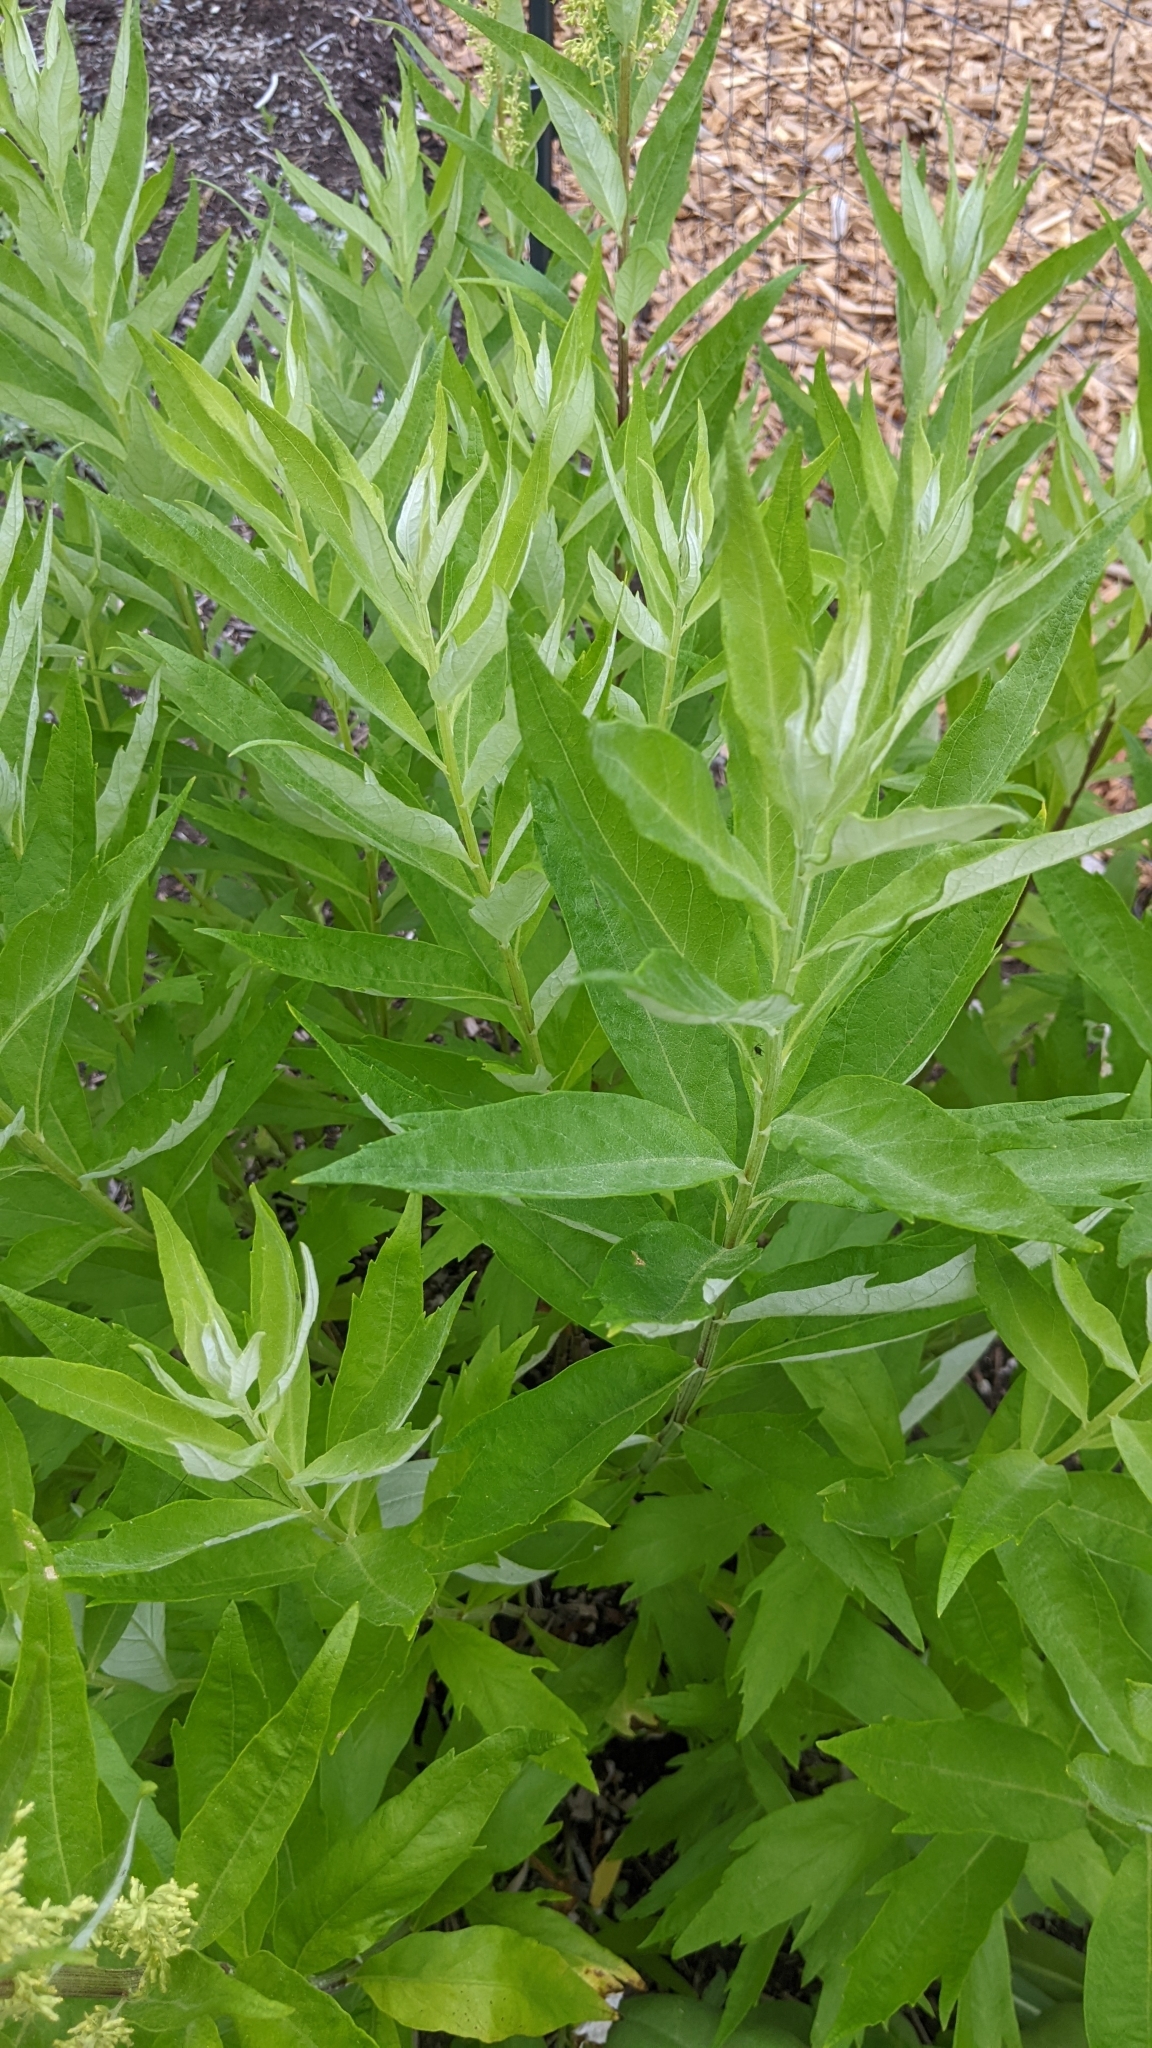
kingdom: Plantae
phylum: Tracheophyta
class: Magnoliopsida
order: Asterales
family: Asteraceae
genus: Artemisia
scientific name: Artemisia suksdorfii
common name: Suksdorf sagewort
